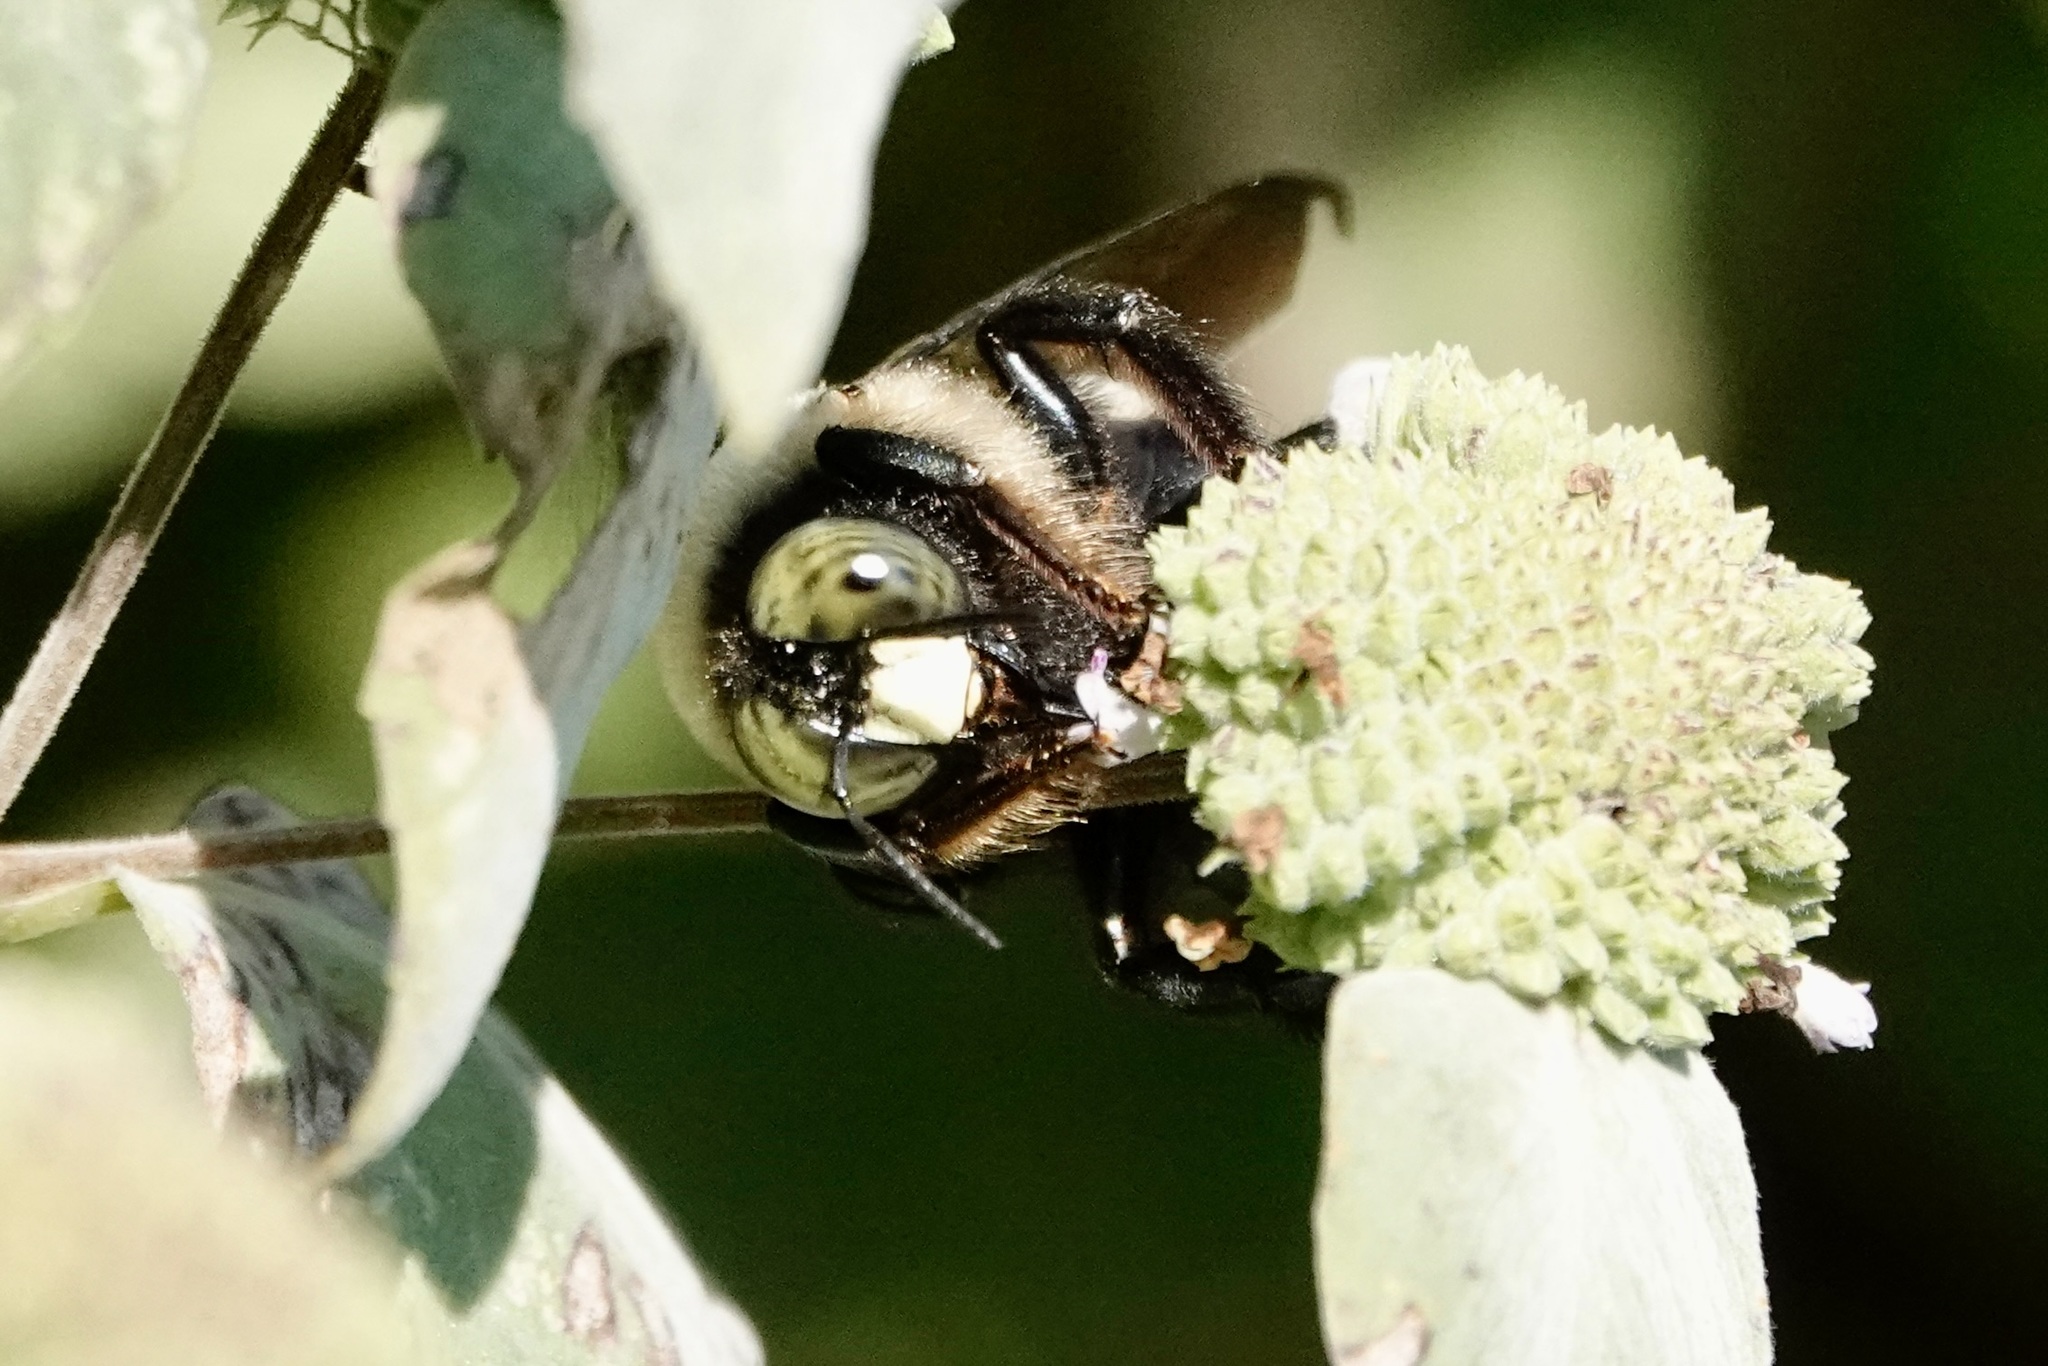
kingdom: Animalia
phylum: Arthropoda
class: Insecta
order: Hymenoptera
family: Apidae
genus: Xylocopa
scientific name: Xylocopa virginica
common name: Carpenter bee
